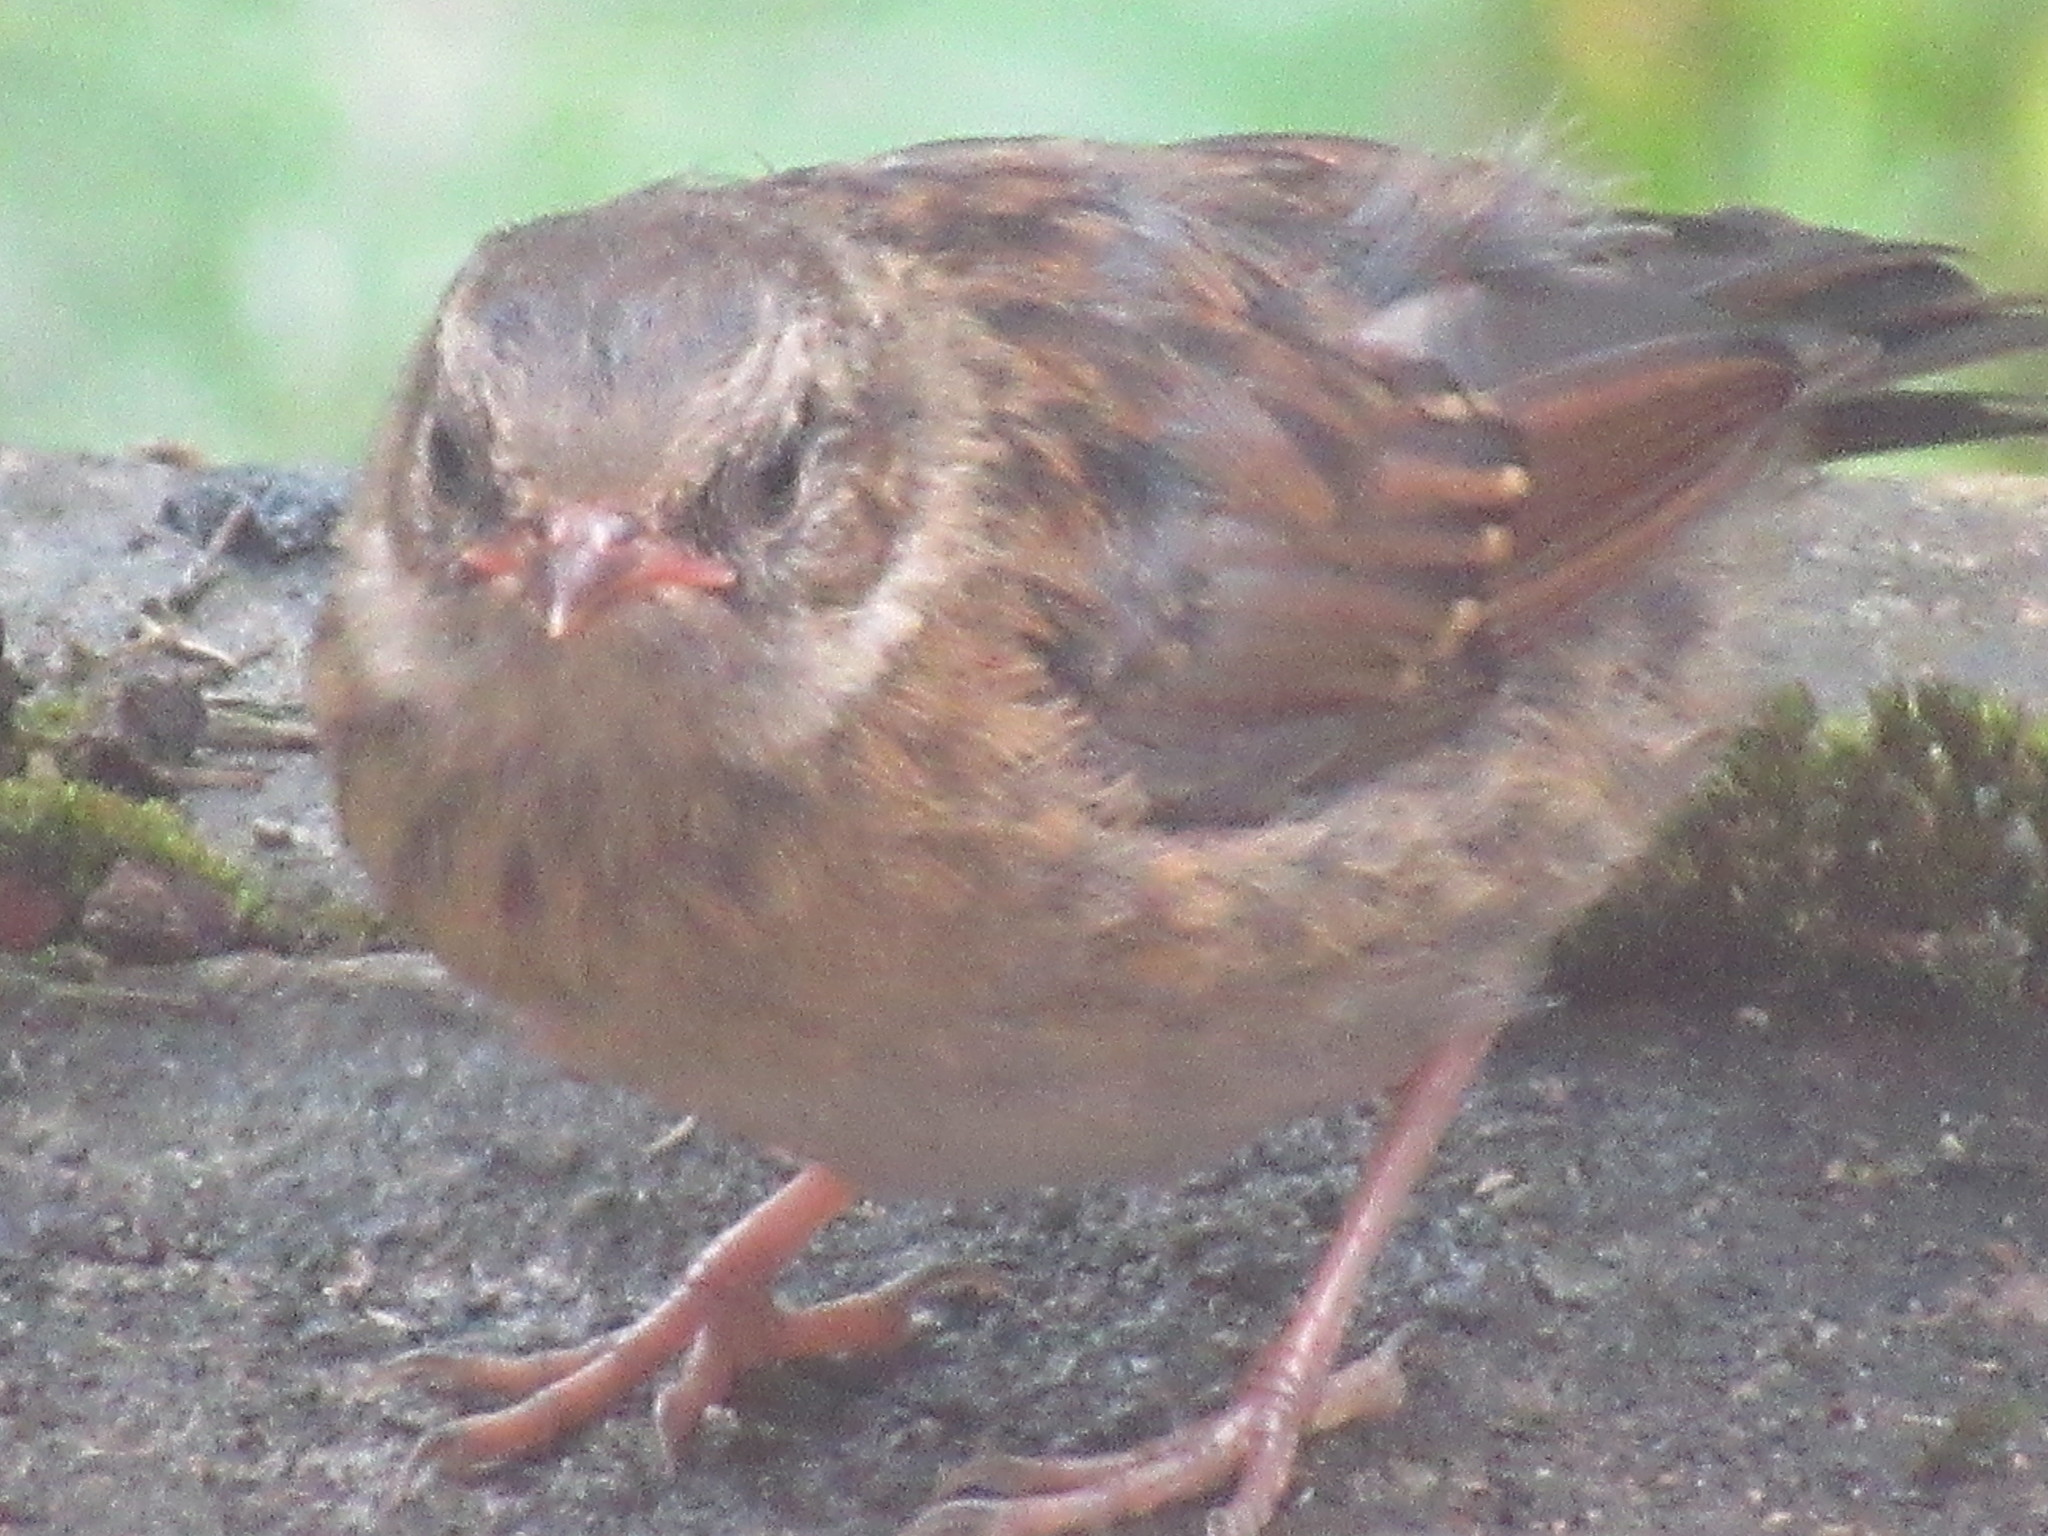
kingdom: Animalia
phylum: Chordata
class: Aves
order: Passeriformes
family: Prunellidae
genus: Prunella
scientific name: Prunella modularis
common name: Dunnock
